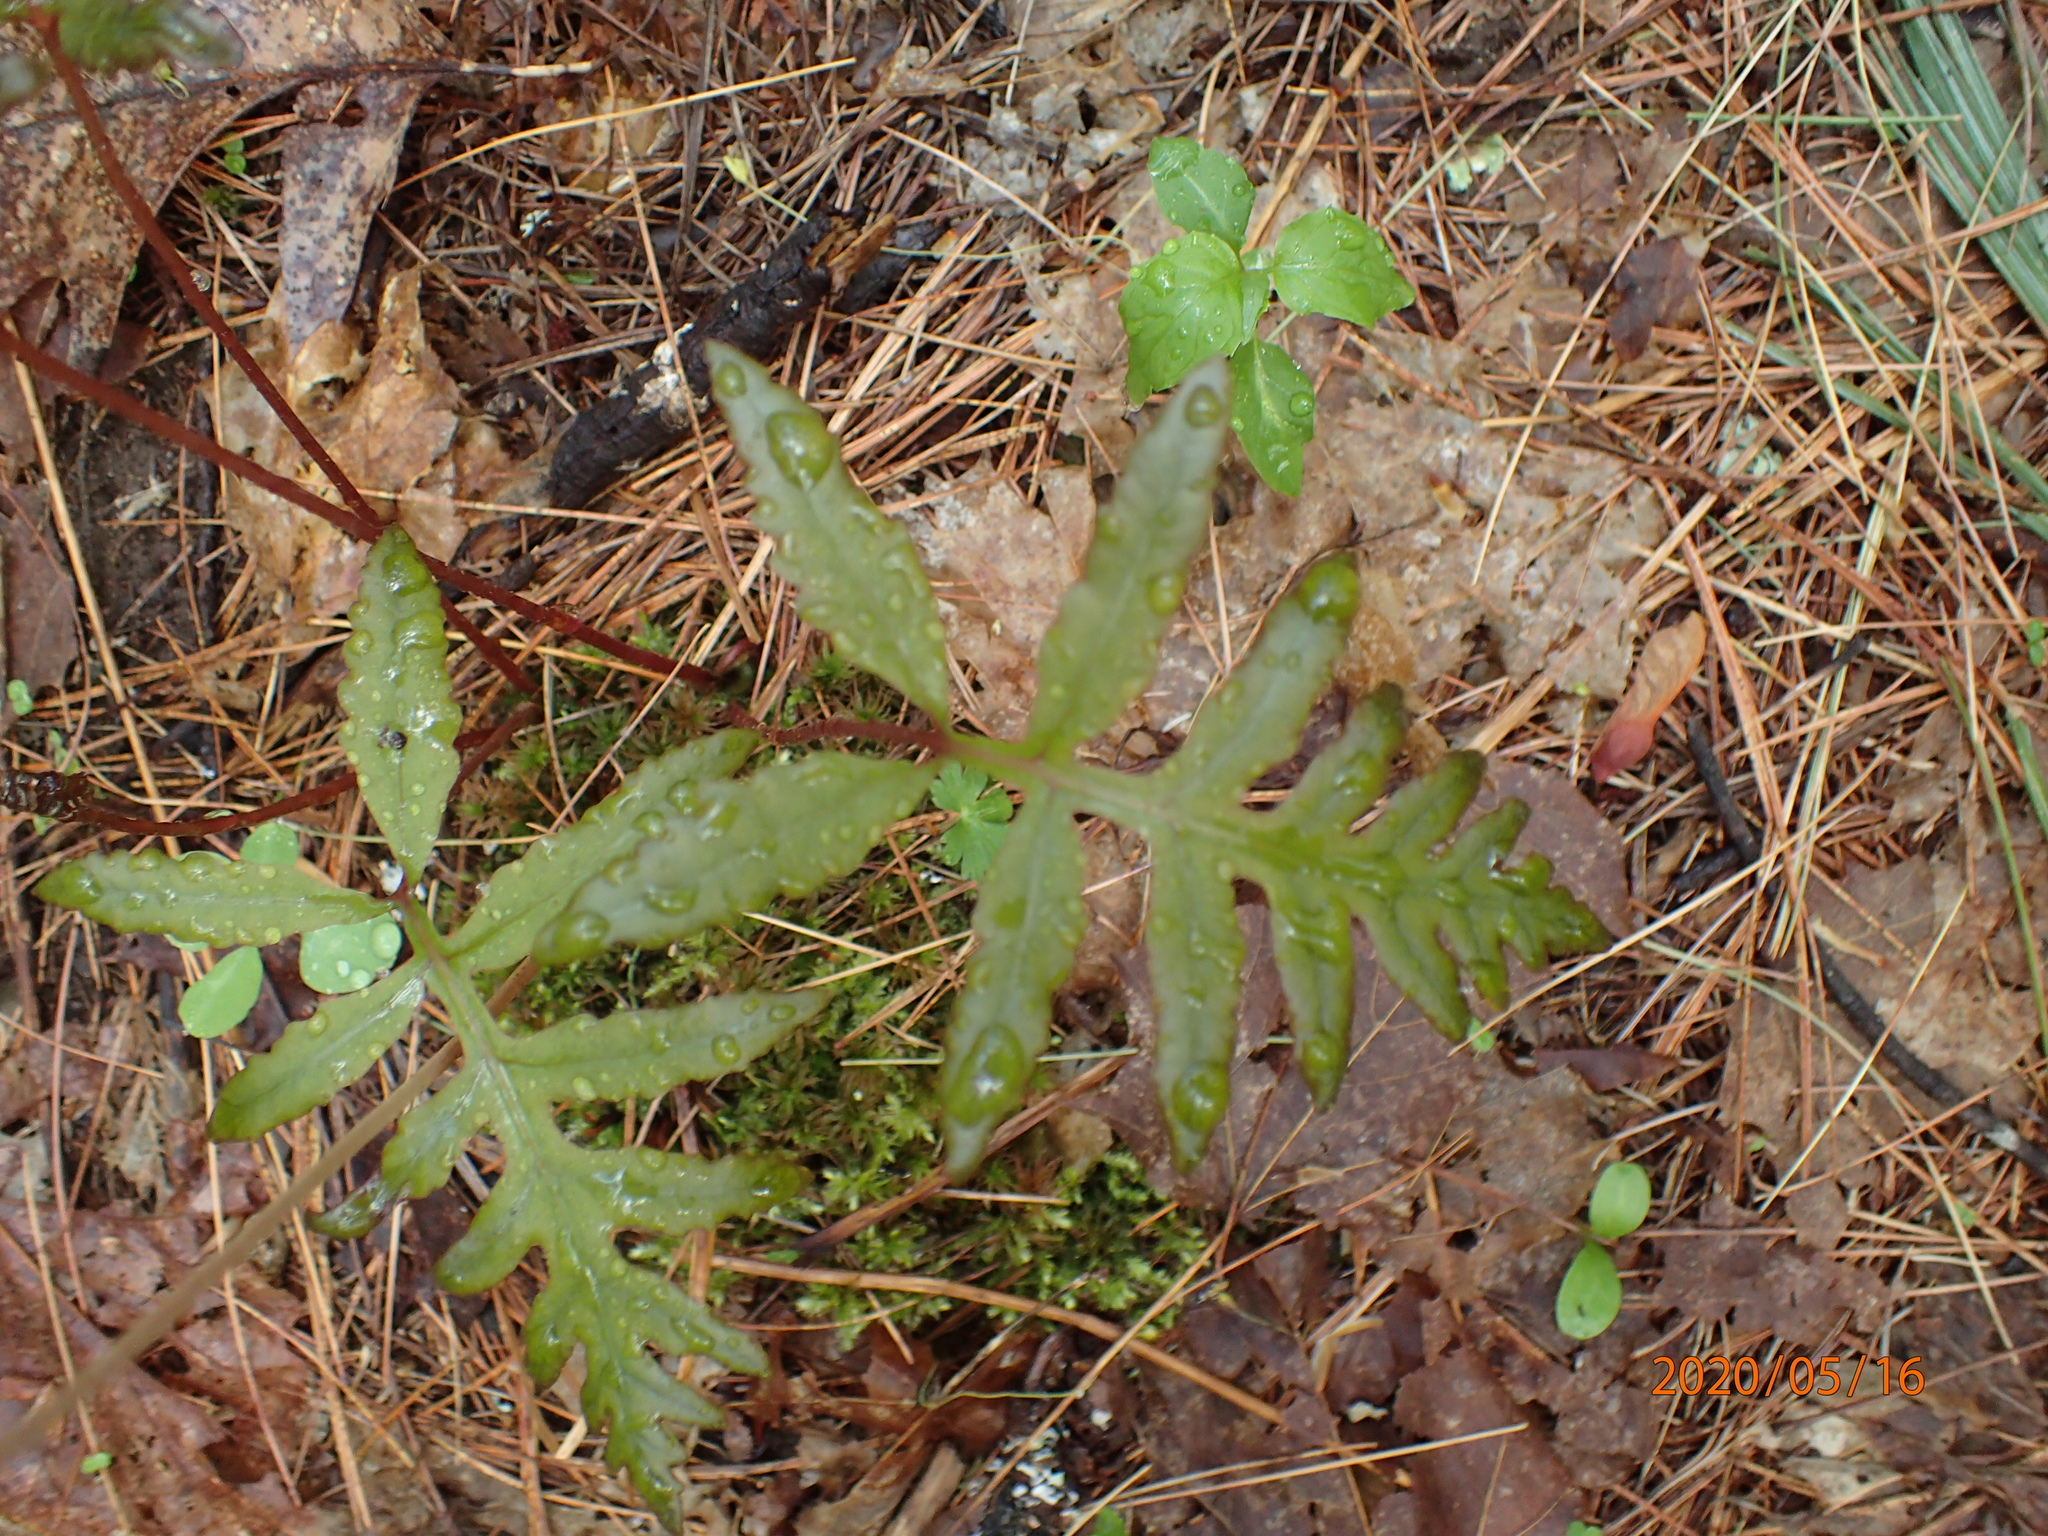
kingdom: Plantae
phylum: Tracheophyta
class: Polypodiopsida
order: Polypodiales
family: Onocleaceae
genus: Onoclea
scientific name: Onoclea sensibilis
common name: Sensitive fern
